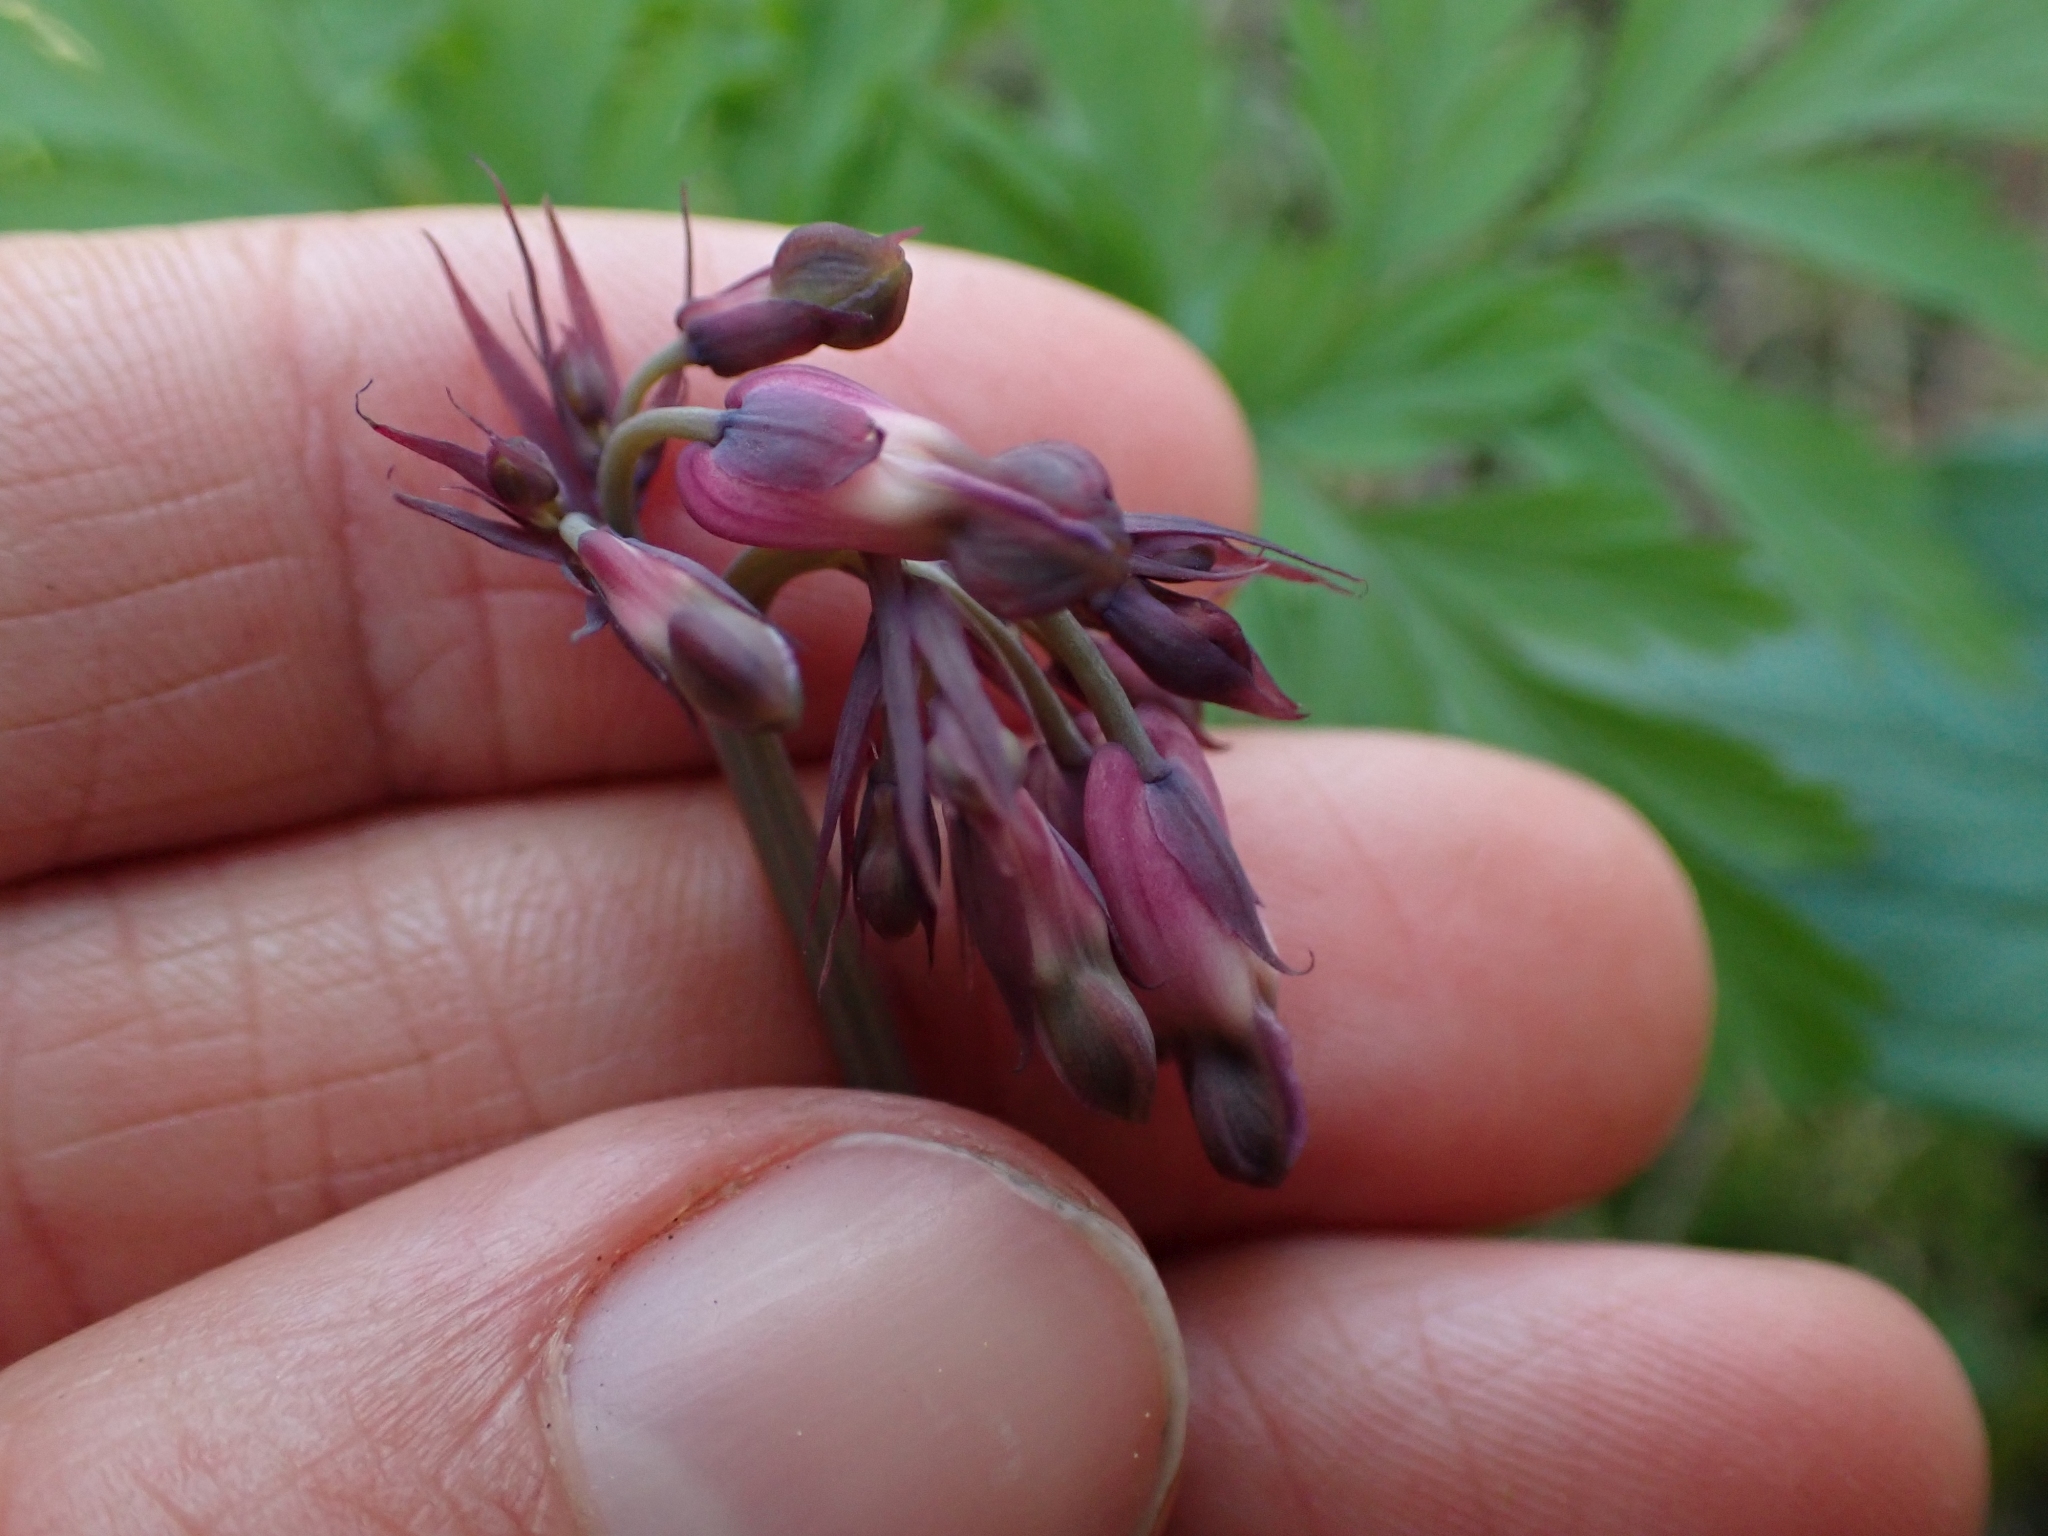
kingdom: Plantae
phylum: Tracheophyta
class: Magnoliopsida
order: Ranunculales
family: Papaveraceae
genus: Dicentra
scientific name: Dicentra formosa
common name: Bleeding-heart
